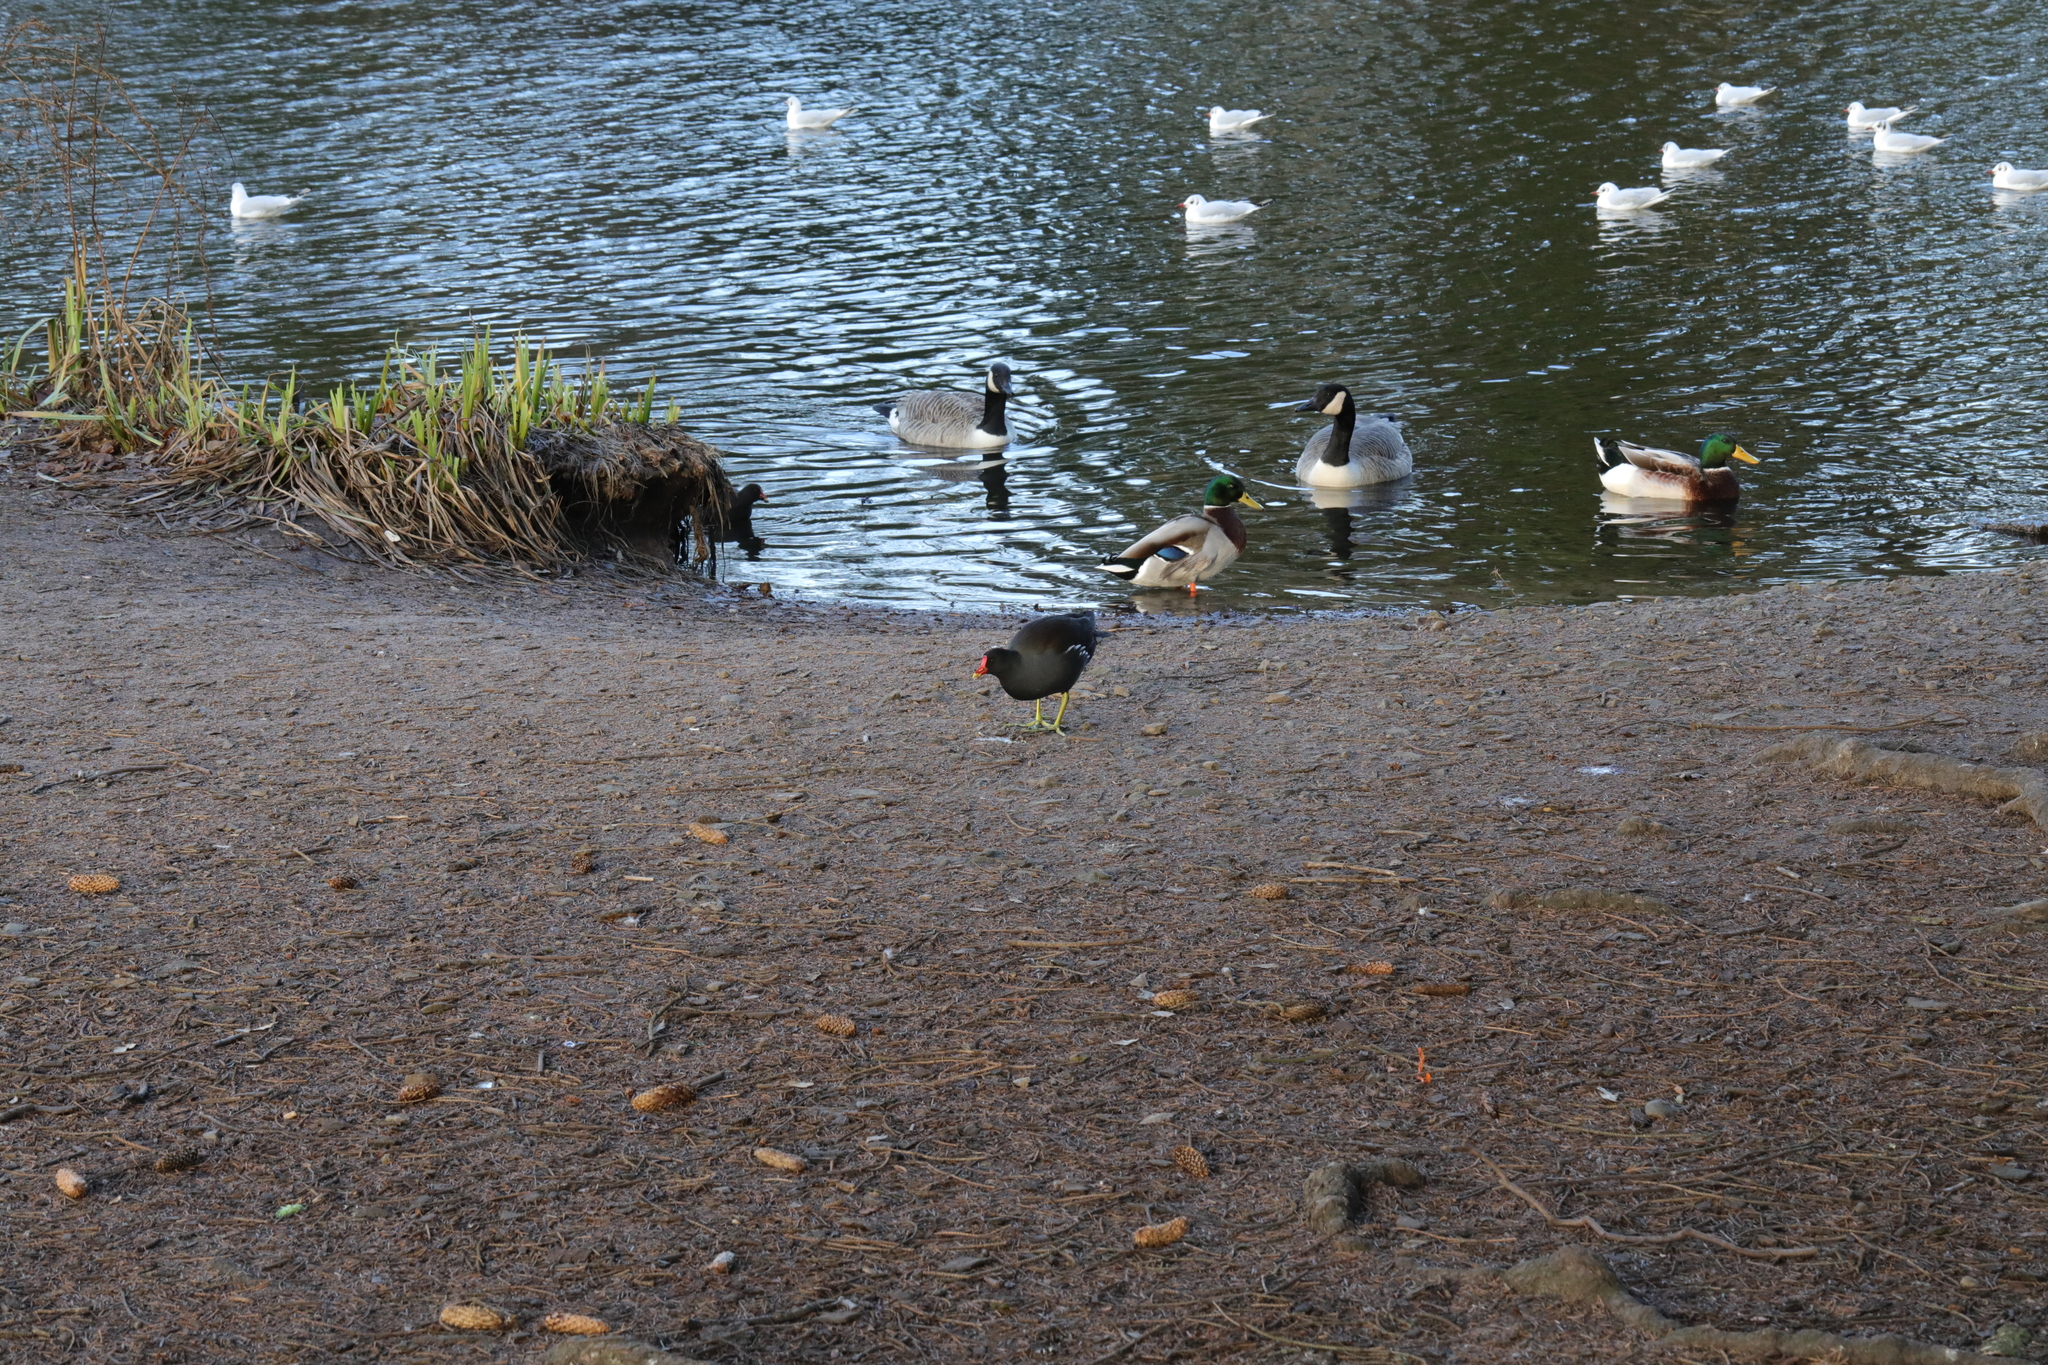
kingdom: Animalia
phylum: Chordata
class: Aves
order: Gruiformes
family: Rallidae
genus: Gallinula
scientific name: Gallinula chloropus
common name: Common moorhen
